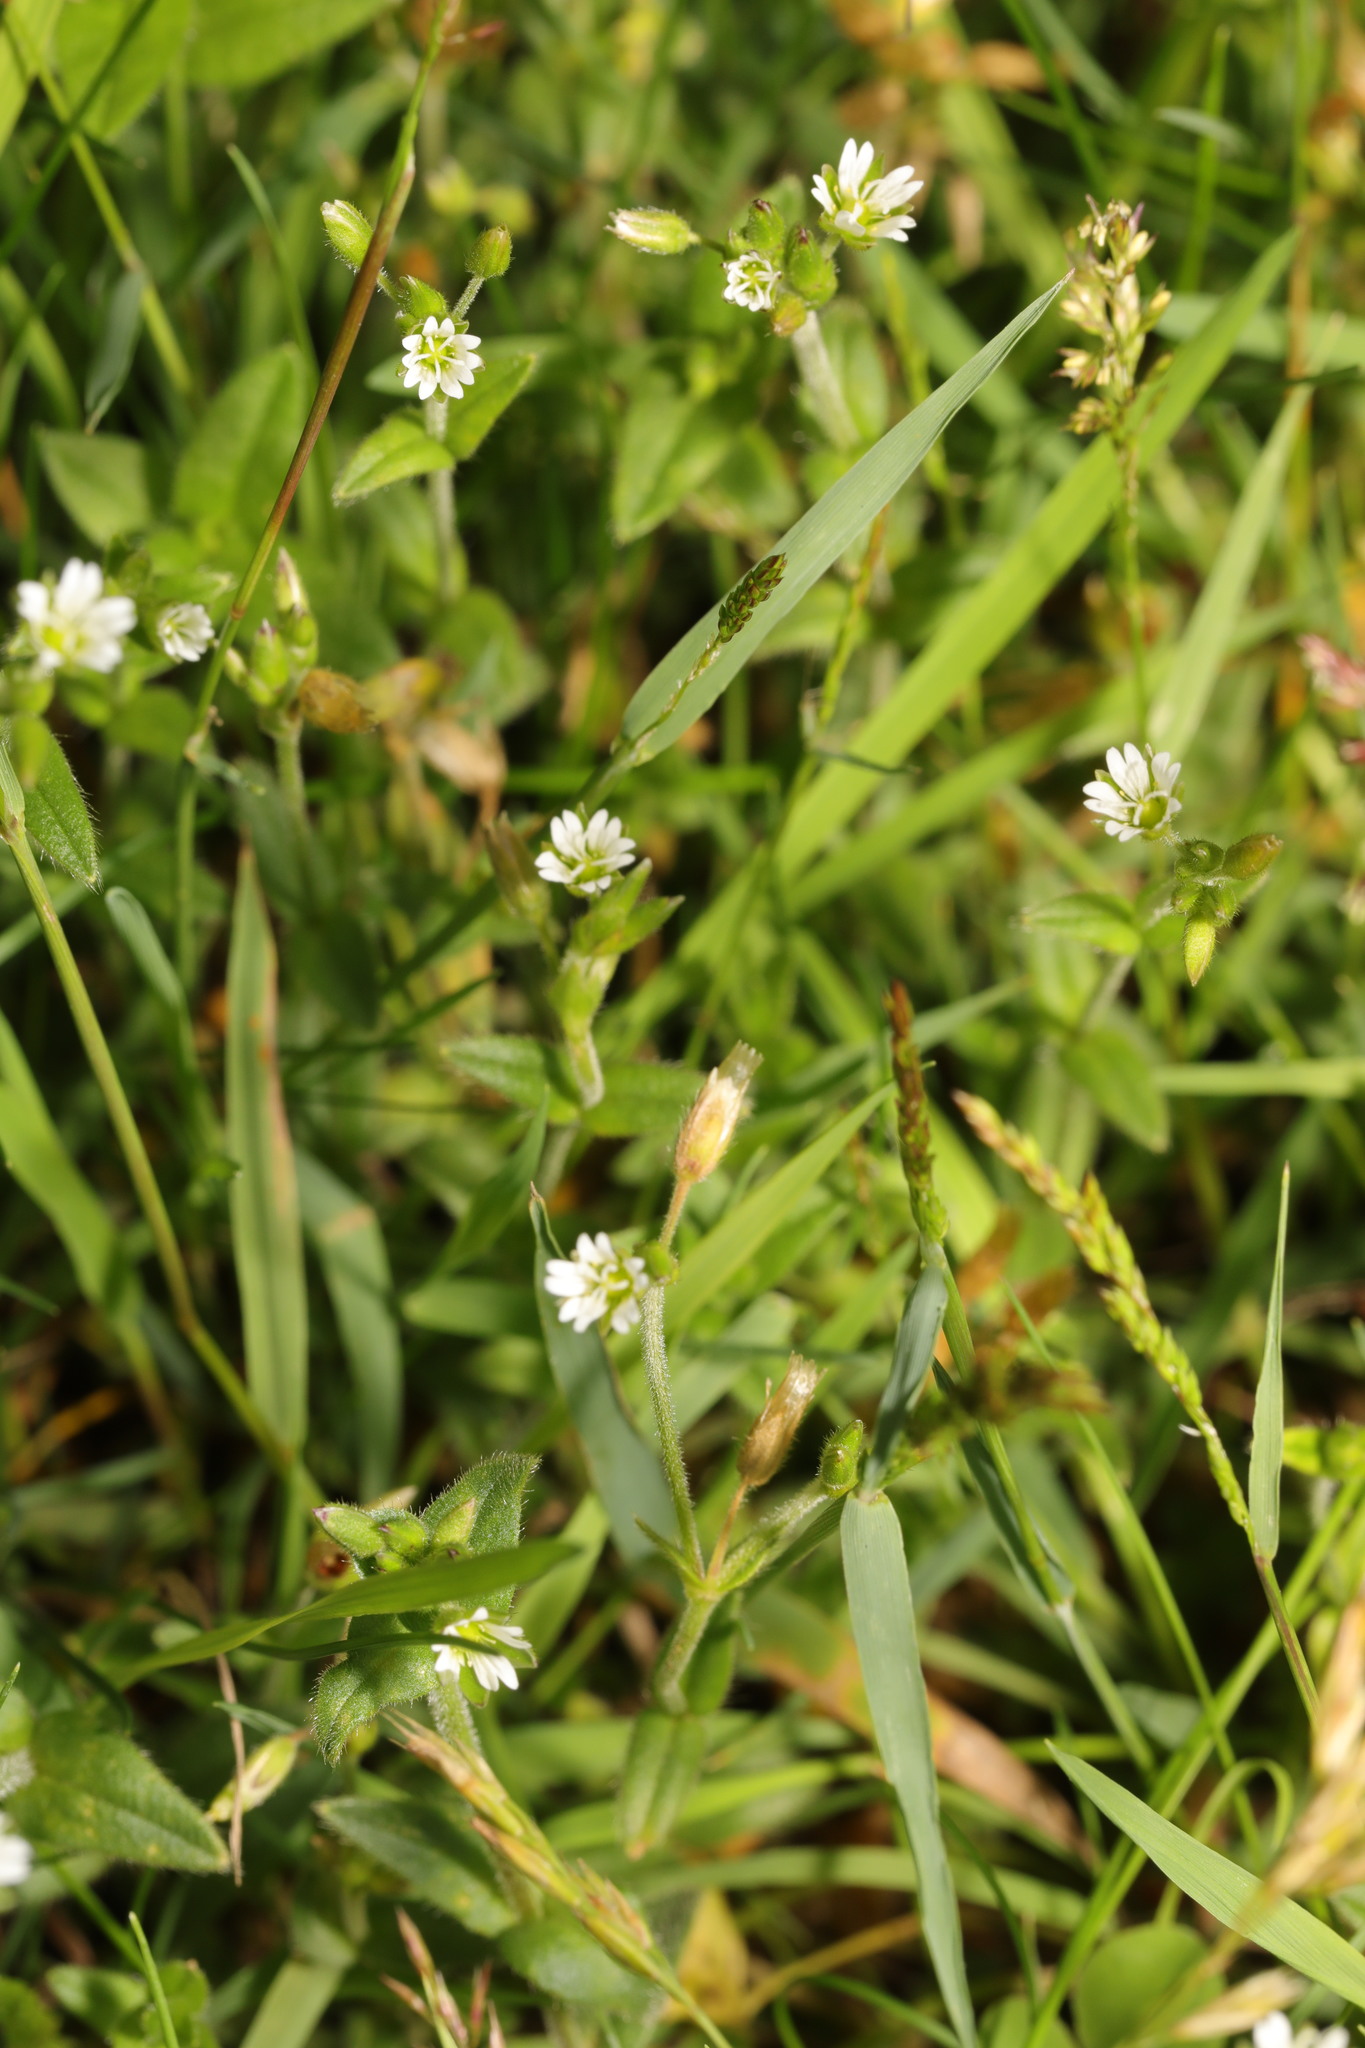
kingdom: Plantae
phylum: Tracheophyta
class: Magnoliopsida
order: Caryophyllales
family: Caryophyllaceae
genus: Cerastium
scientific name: Cerastium fontanum
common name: Common mouse-ear
